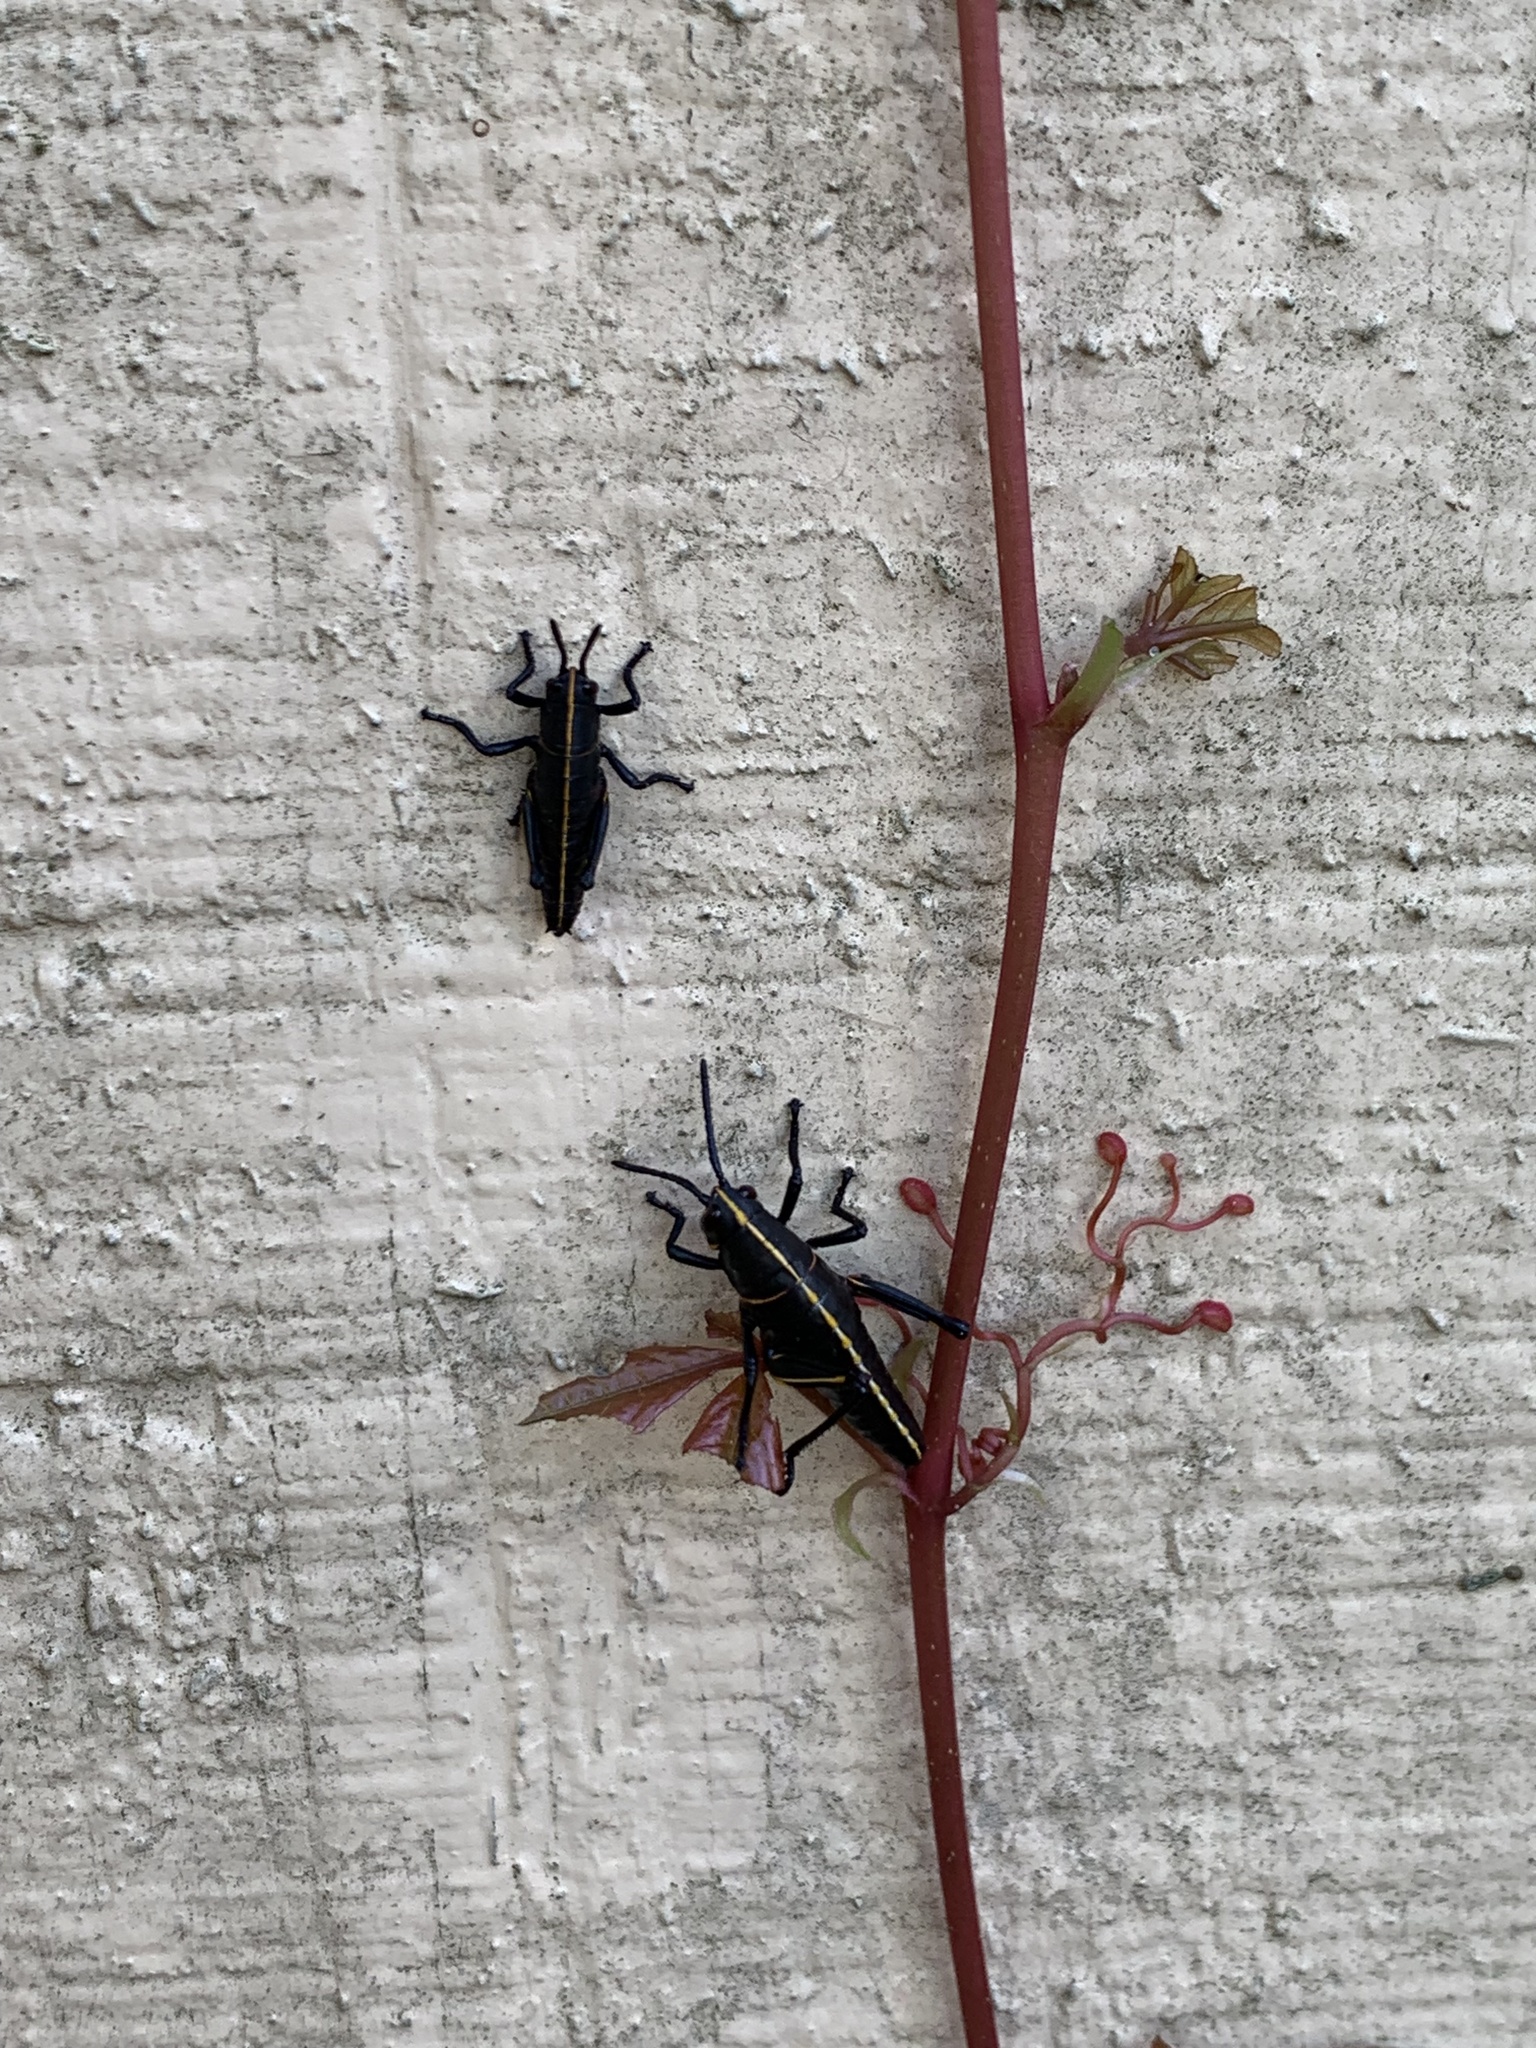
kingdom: Animalia
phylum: Arthropoda
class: Insecta
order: Orthoptera
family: Romaleidae
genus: Romalea
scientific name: Romalea microptera
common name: Eastern lubber grasshopper
